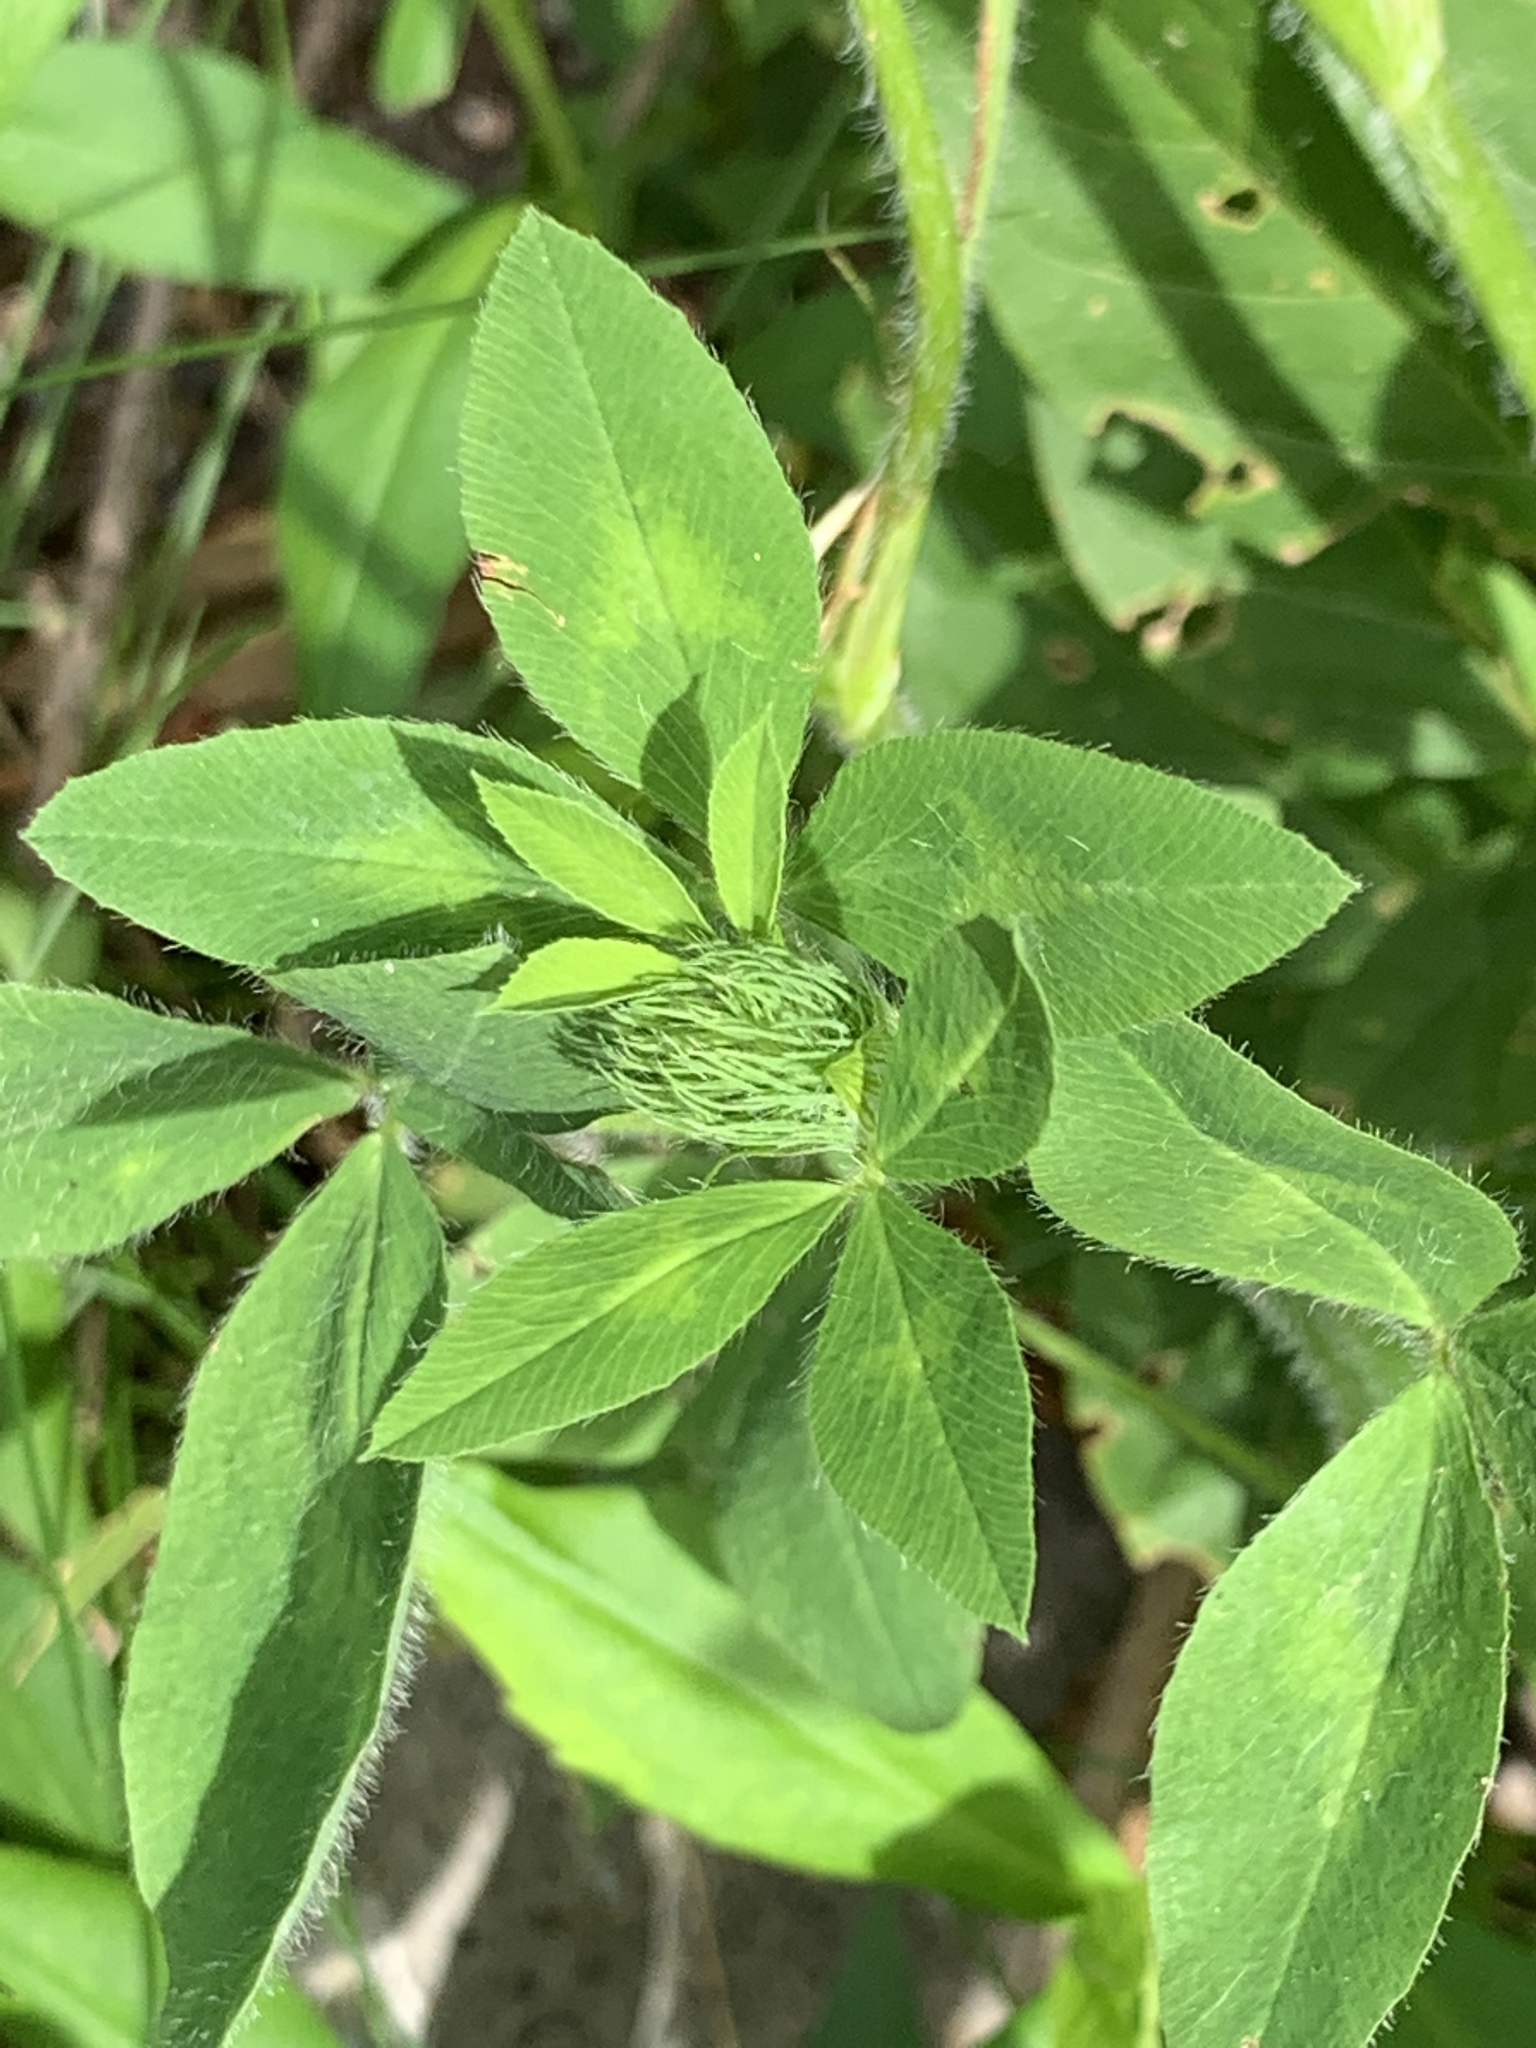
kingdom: Plantae
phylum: Tracheophyta
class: Magnoliopsida
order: Fabales
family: Fabaceae
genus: Trifolium
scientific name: Trifolium pratense
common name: Red clover
